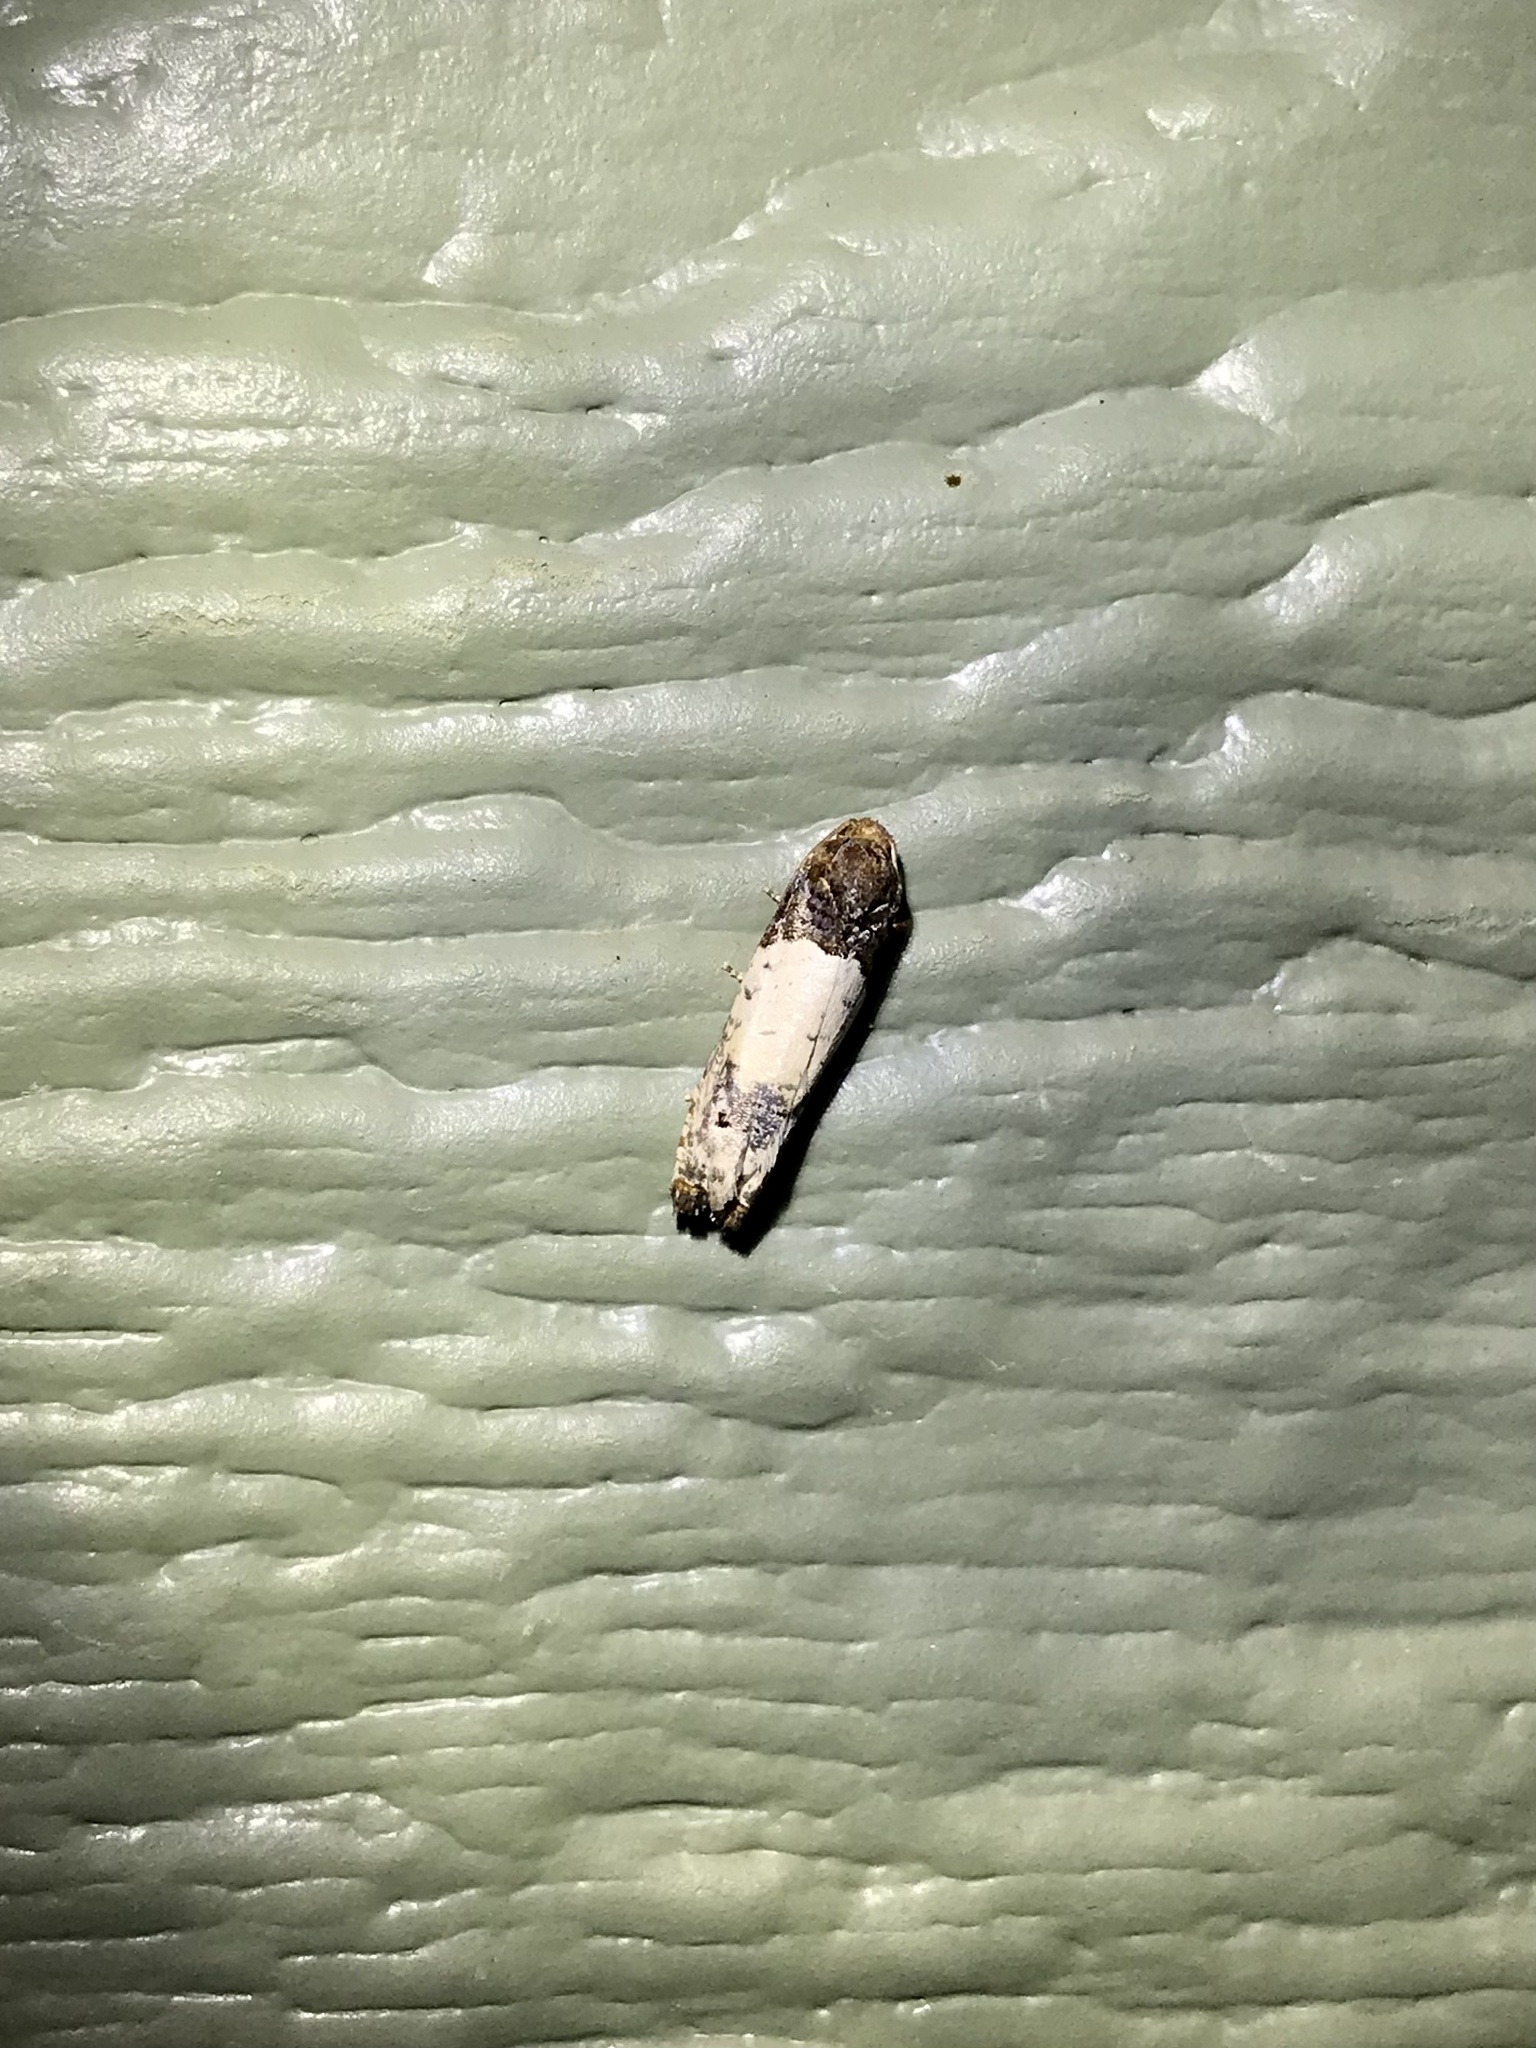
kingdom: Animalia
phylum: Arthropoda
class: Insecta
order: Lepidoptera
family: Tortricidae
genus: Epiblema
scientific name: Epiblema scudderiana
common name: Goldenrod gall moth
